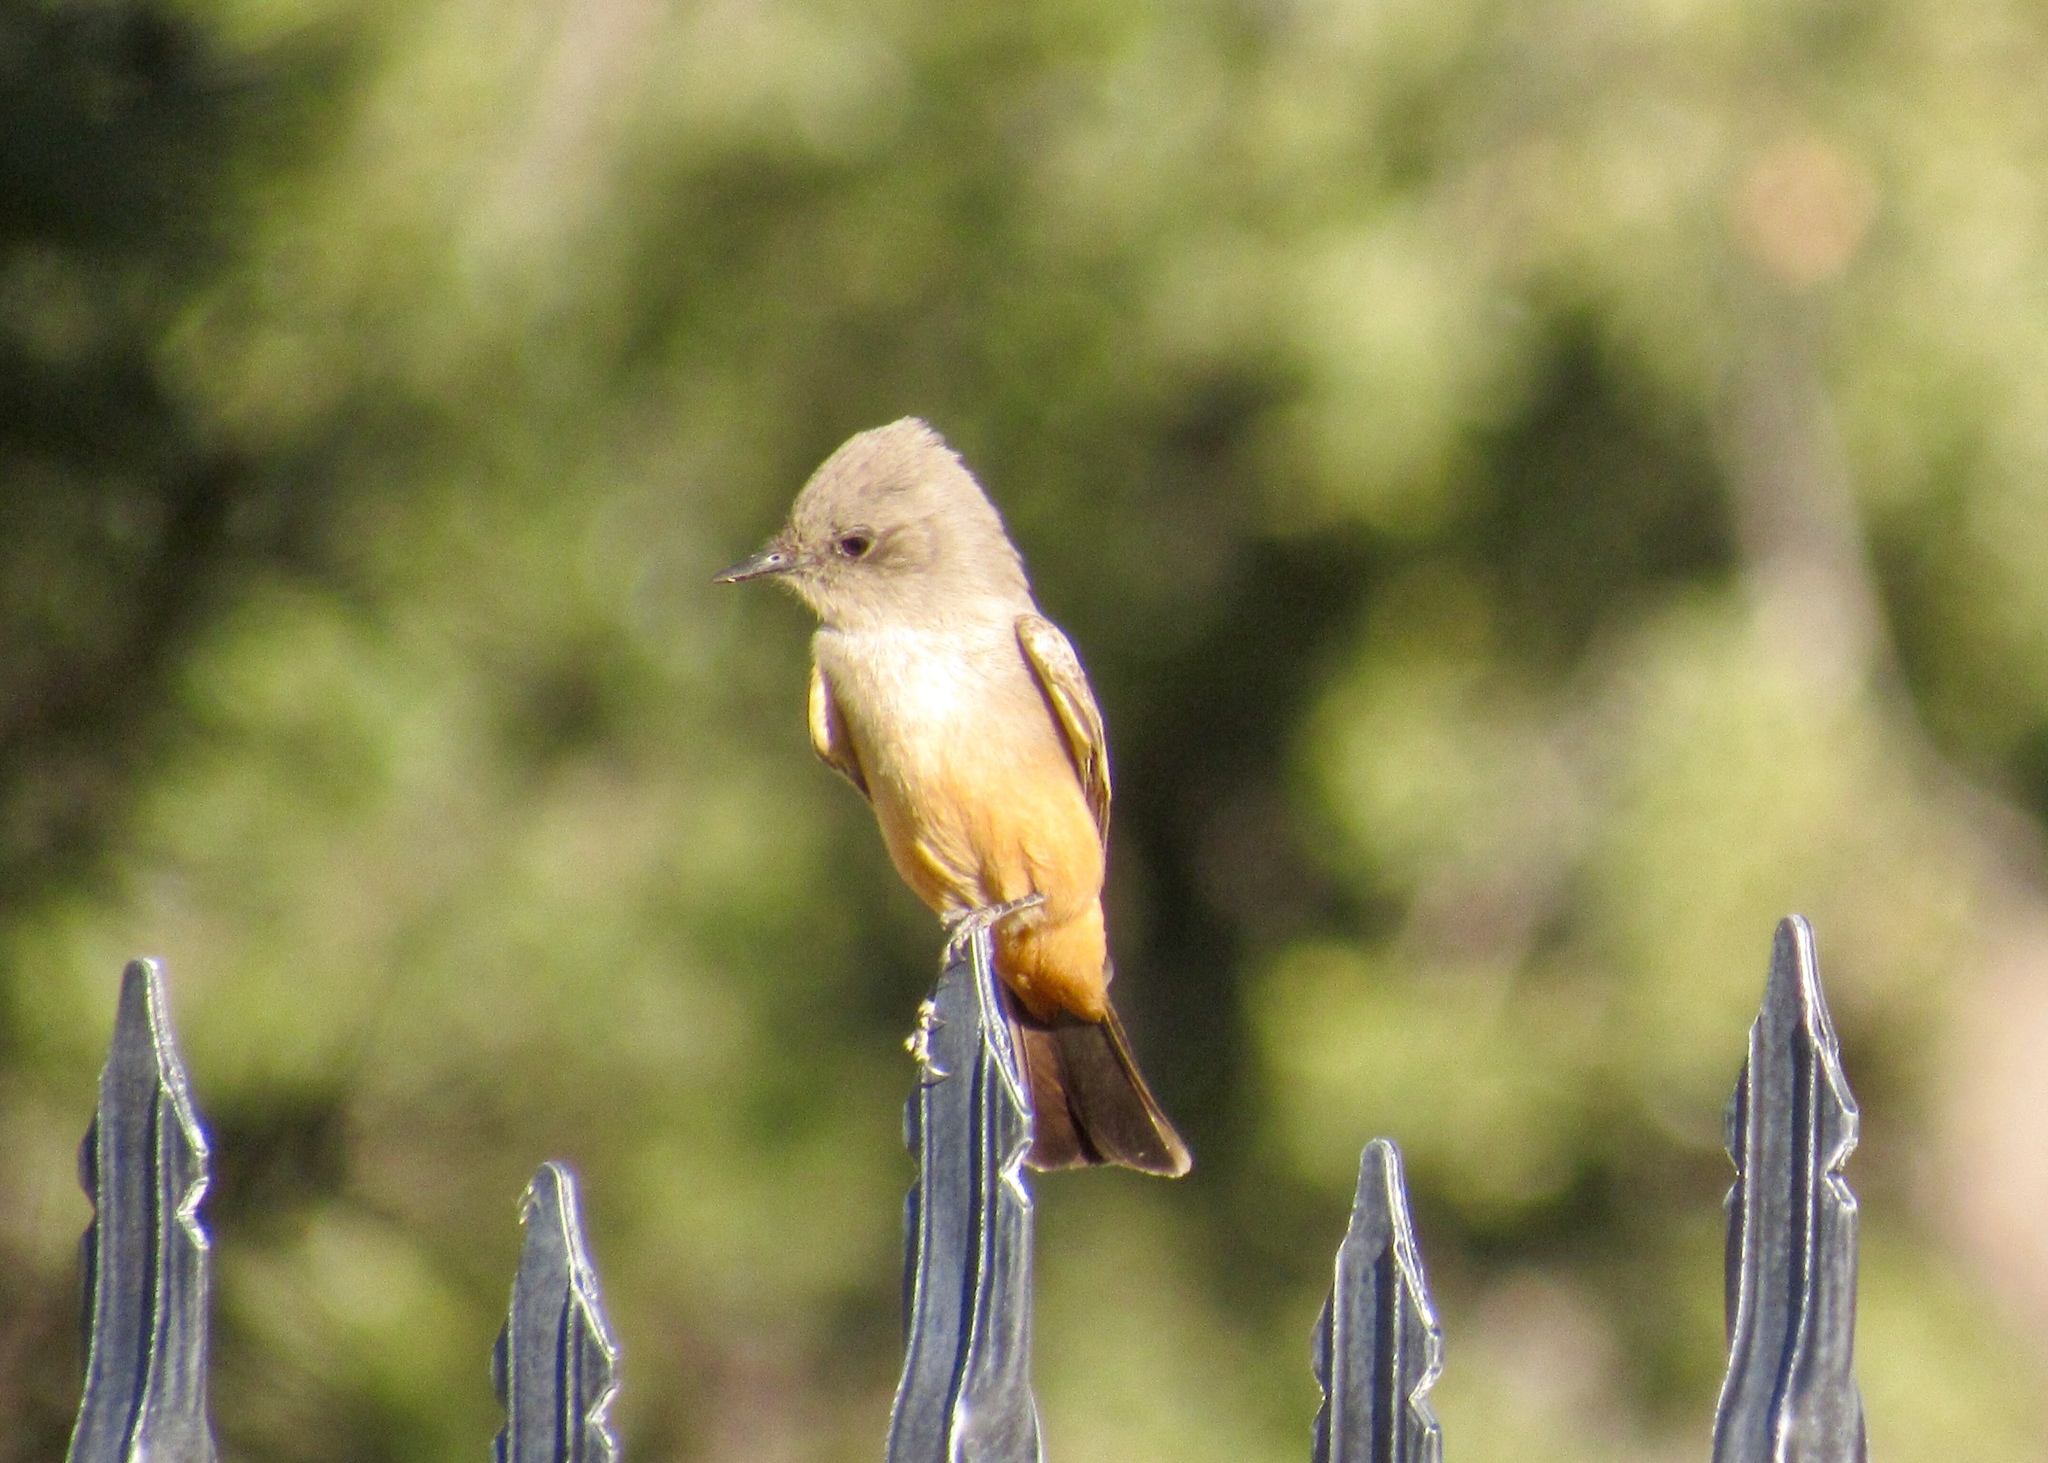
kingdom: Animalia
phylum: Chordata
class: Aves
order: Passeriformes
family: Tyrannidae
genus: Sayornis
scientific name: Sayornis saya
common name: Say's phoebe
